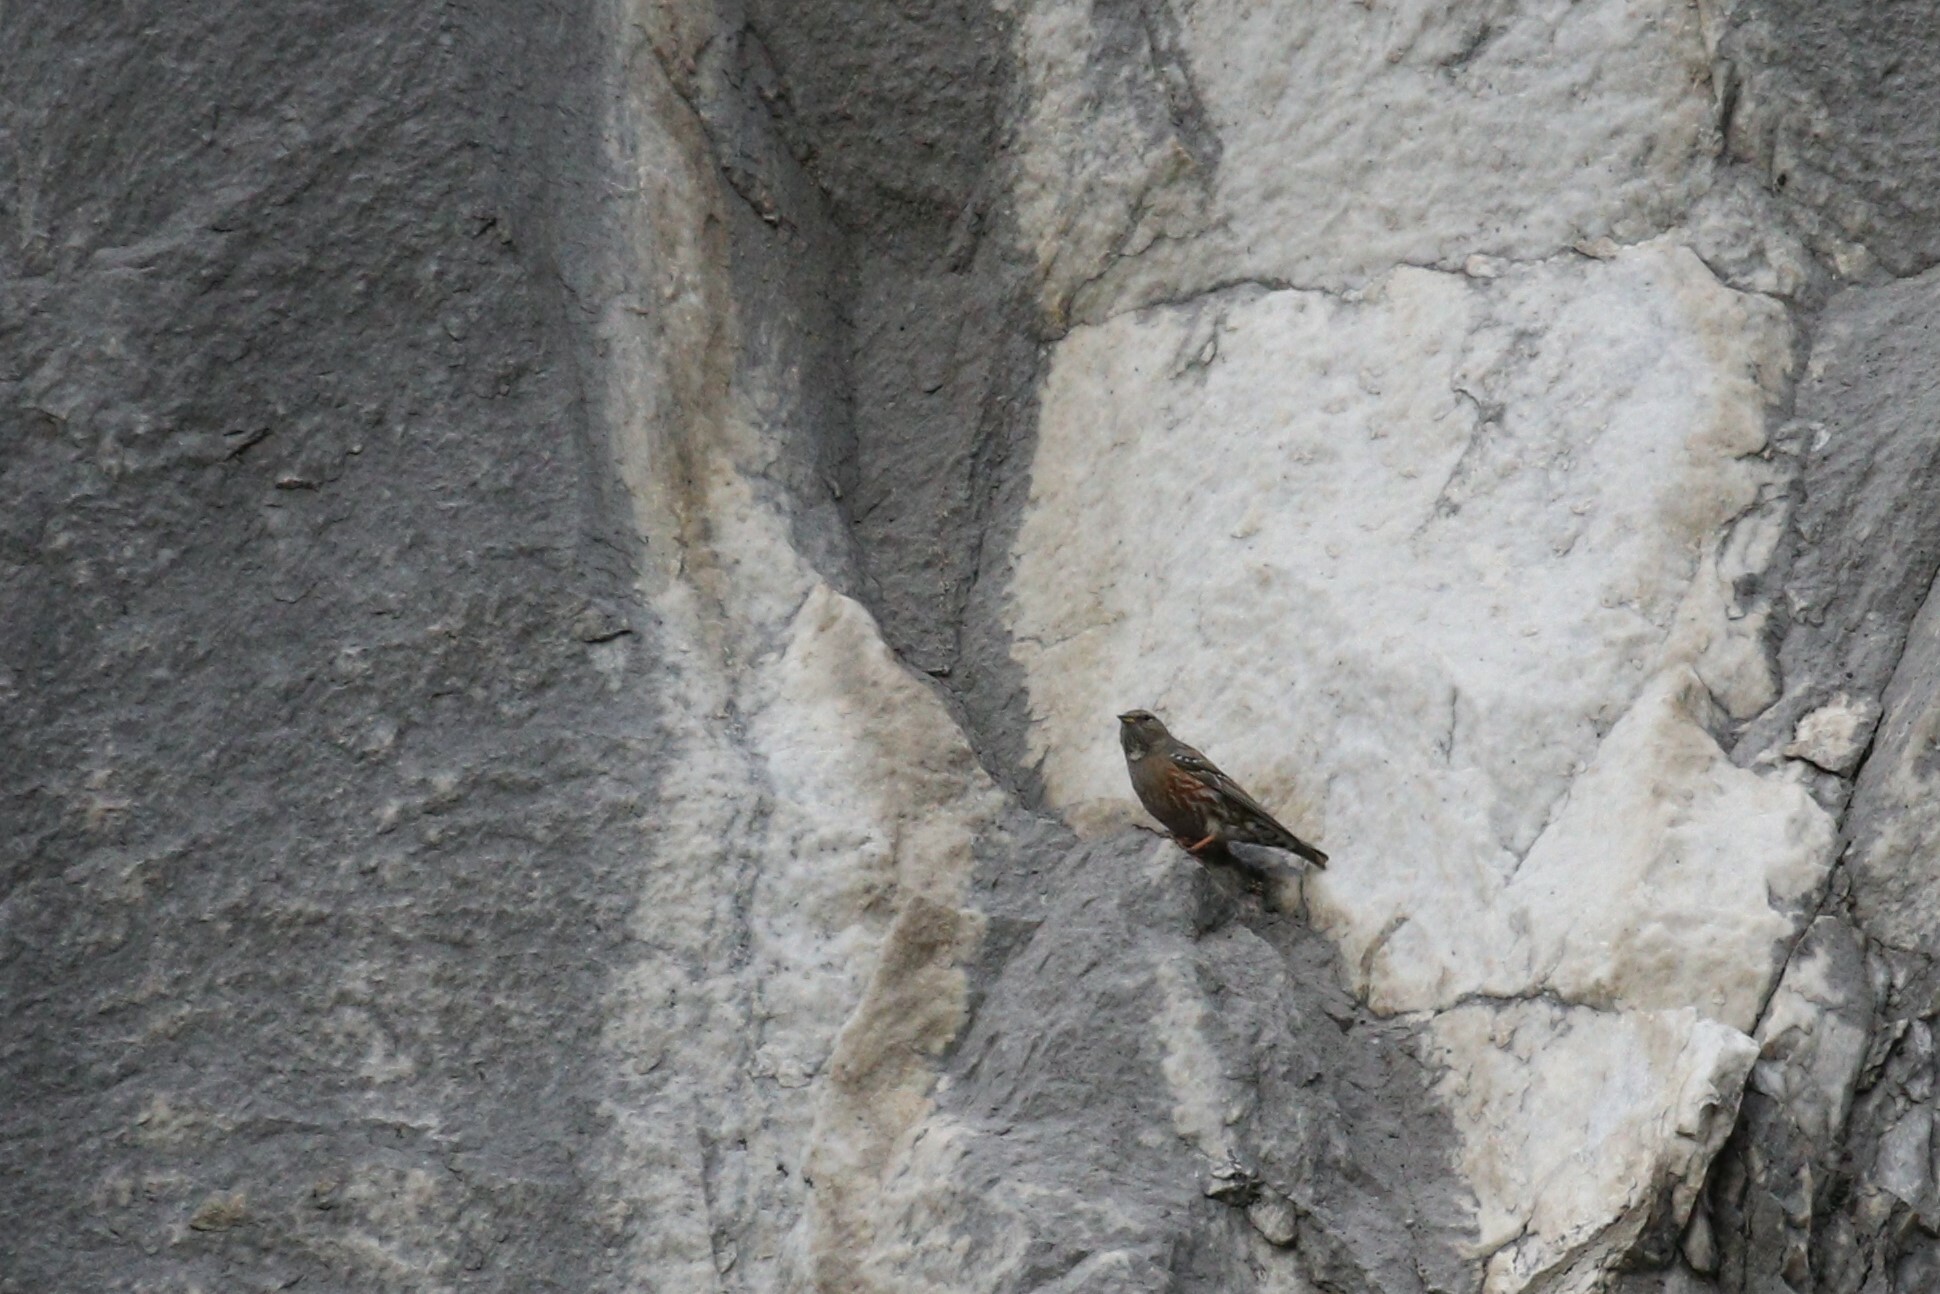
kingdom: Animalia
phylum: Chordata
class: Aves
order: Passeriformes
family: Prunellidae
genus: Prunella
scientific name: Prunella collaris
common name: Alpine accentor
